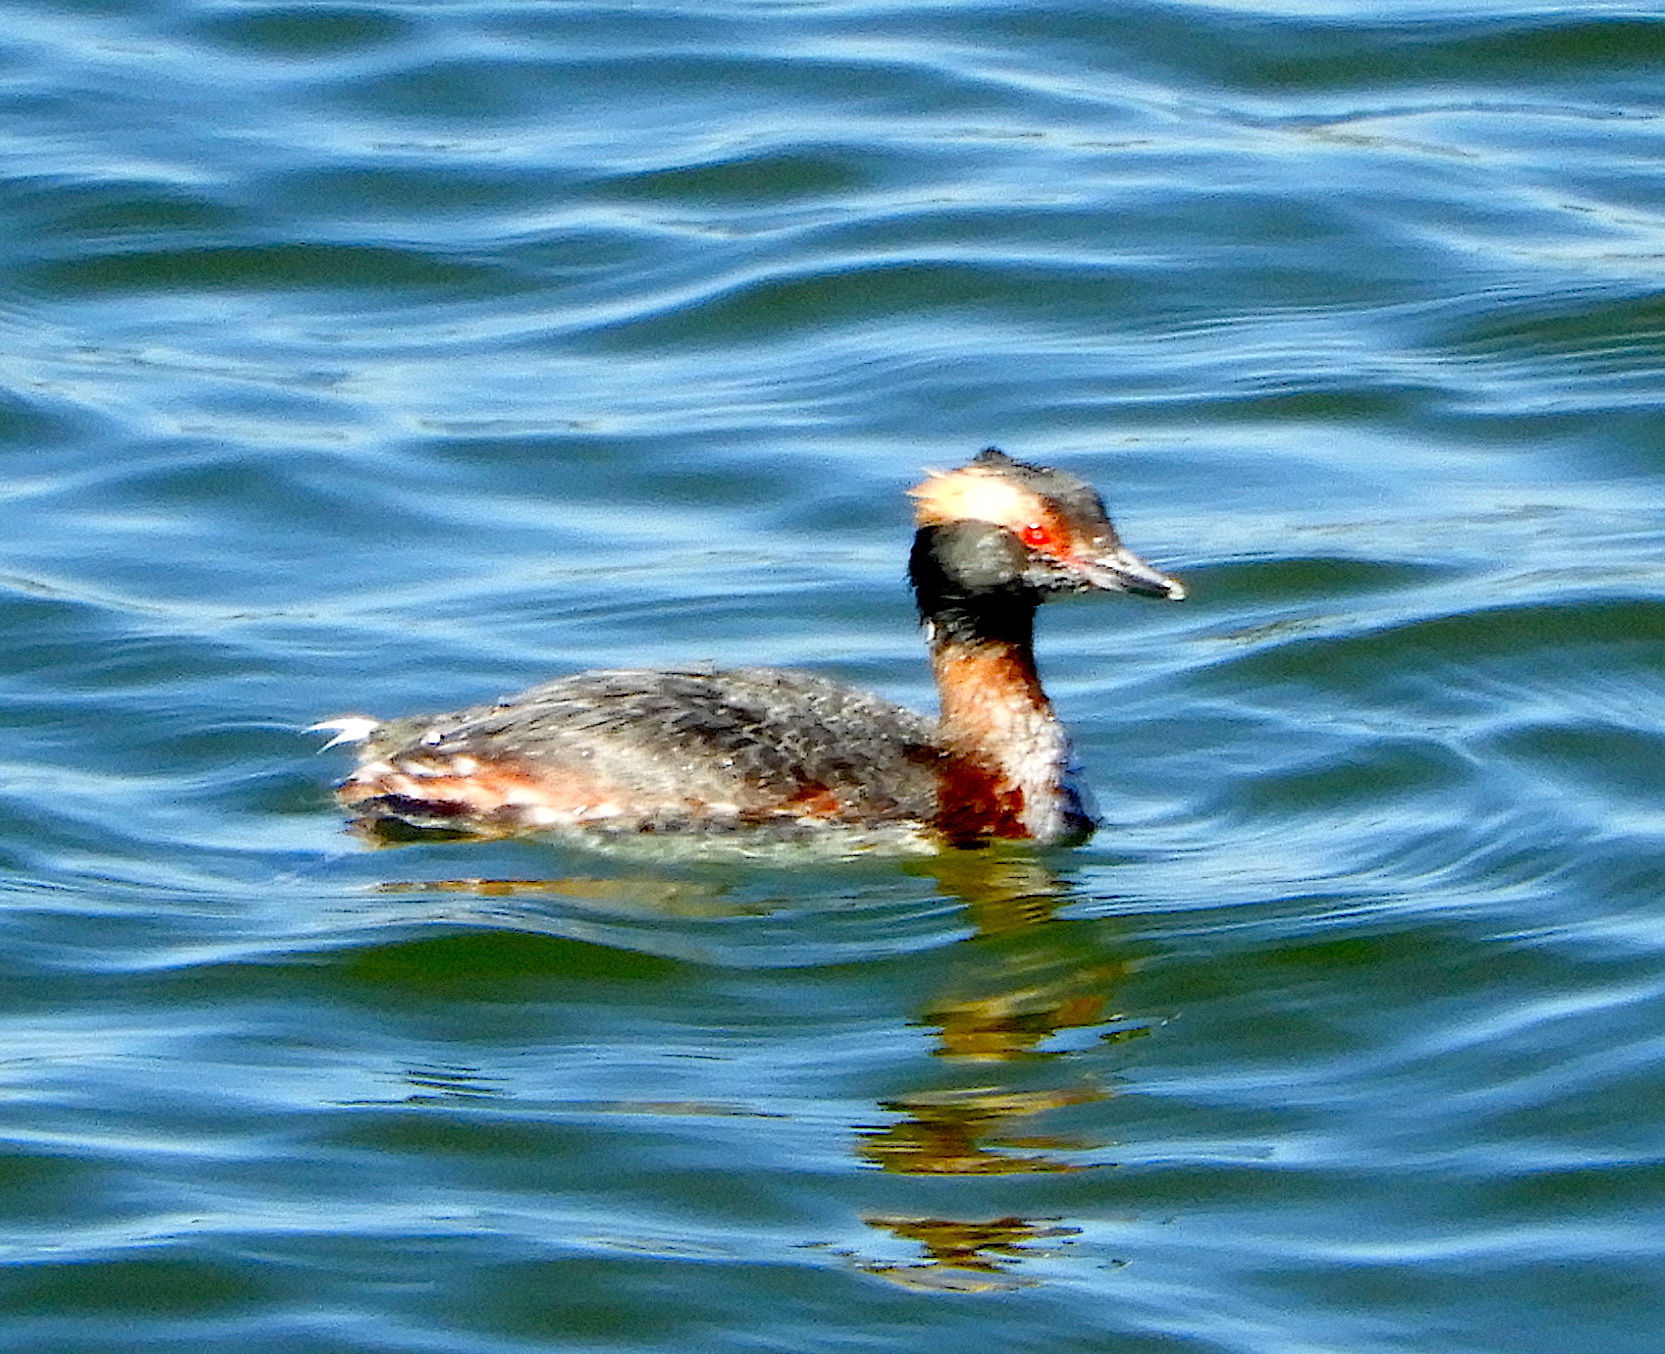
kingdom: Animalia
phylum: Chordata
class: Aves
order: Podicipediformes
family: Podicipedidae
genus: Podiceps
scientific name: Podiceps auritus
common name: Horned grebe
